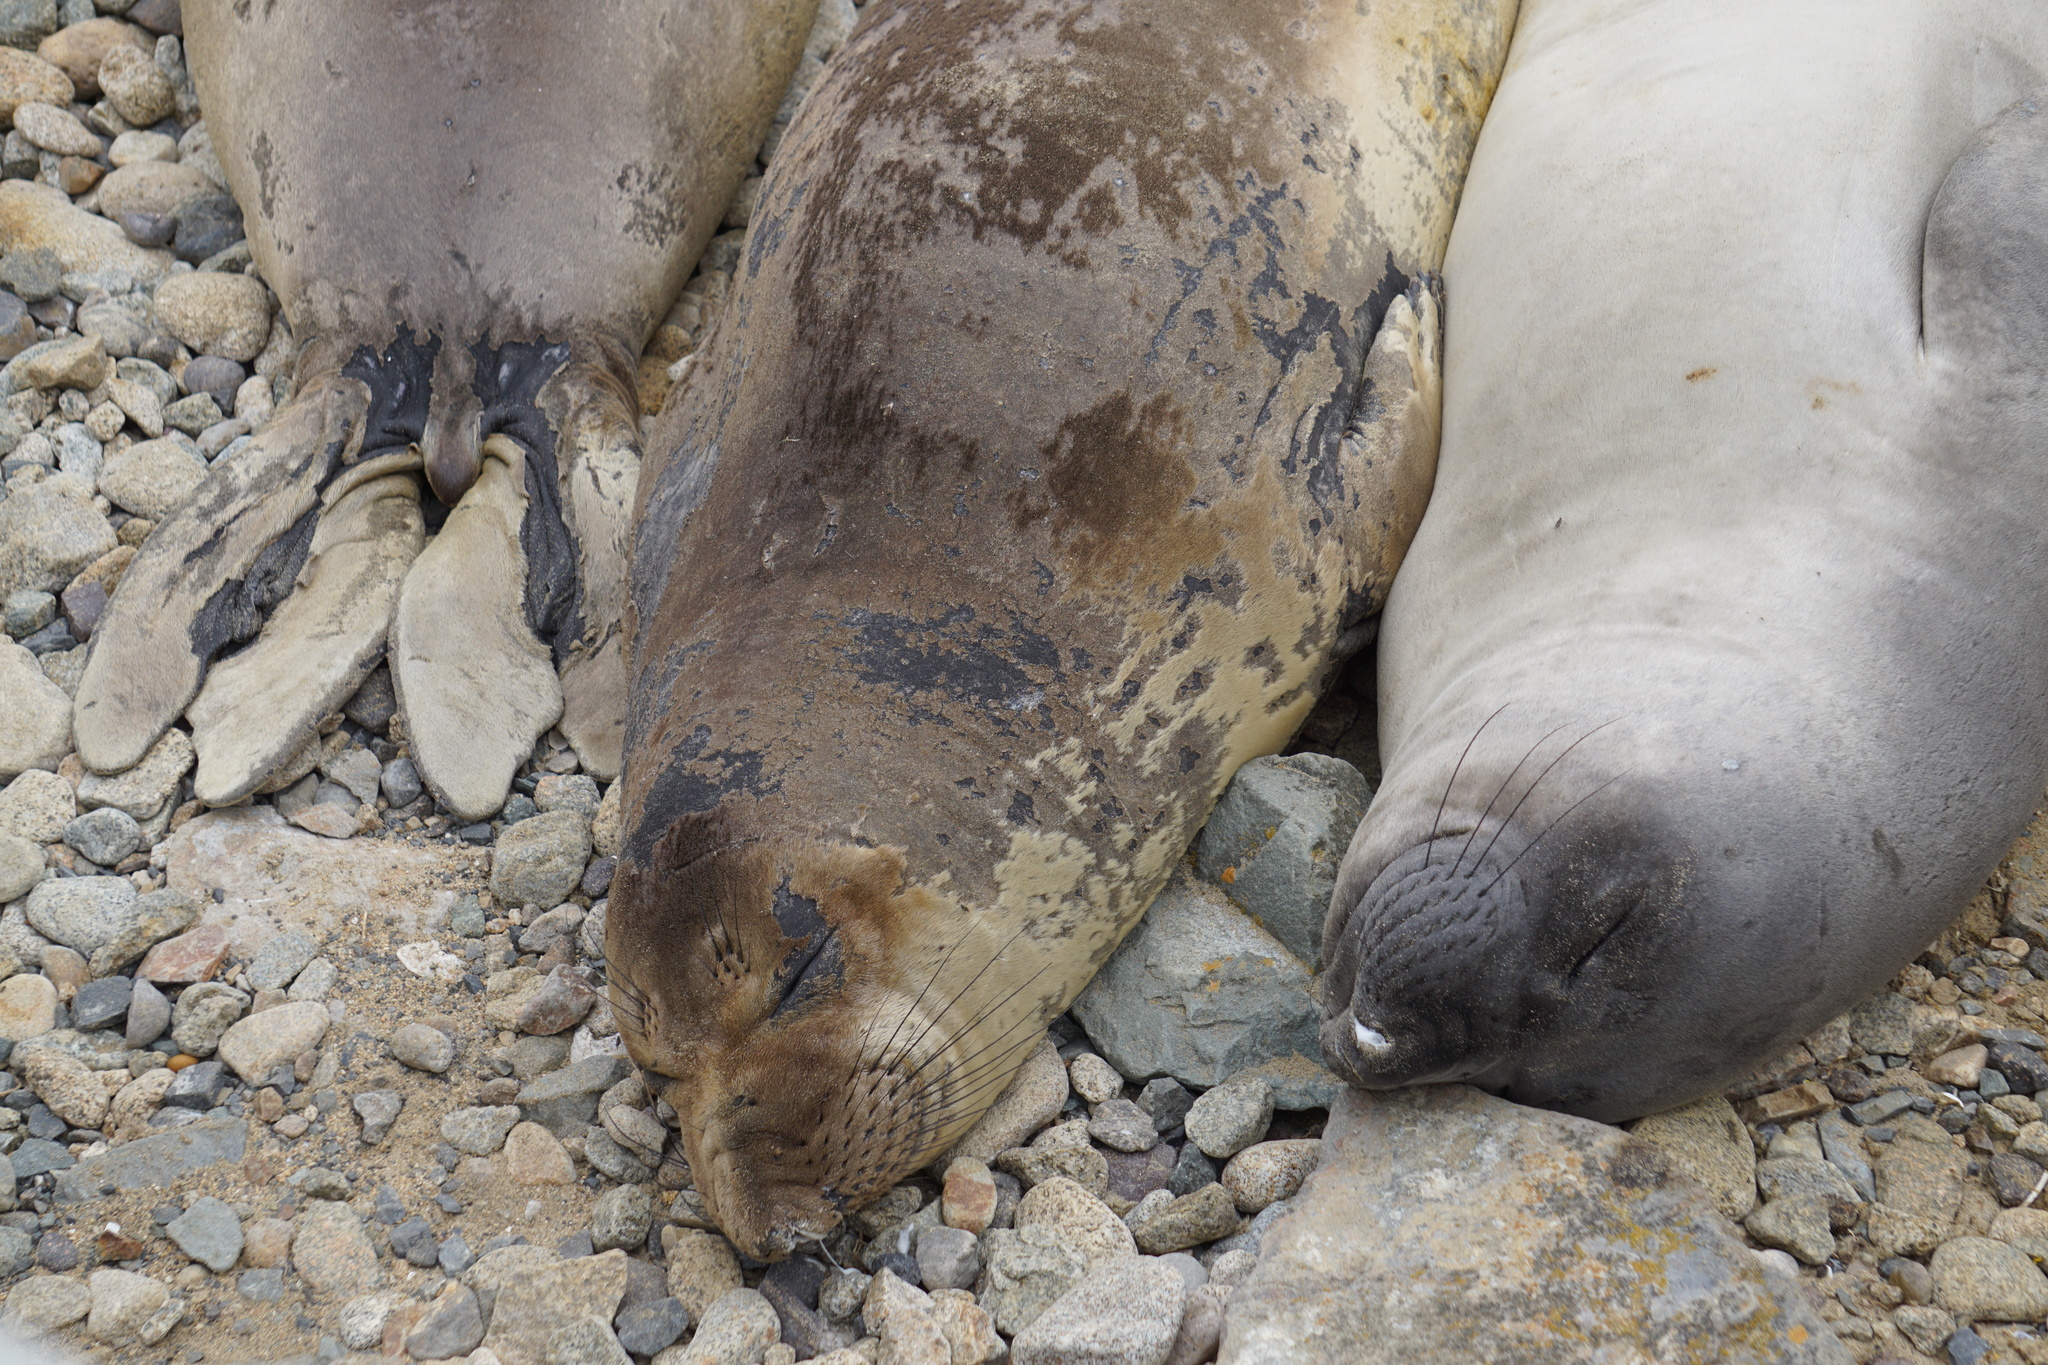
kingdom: Animalia
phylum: Chordata
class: Mammalia
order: Carnivora
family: Phocidae
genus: Mirounga
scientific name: Mirounga angustirostris
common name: Northern elephant seal
